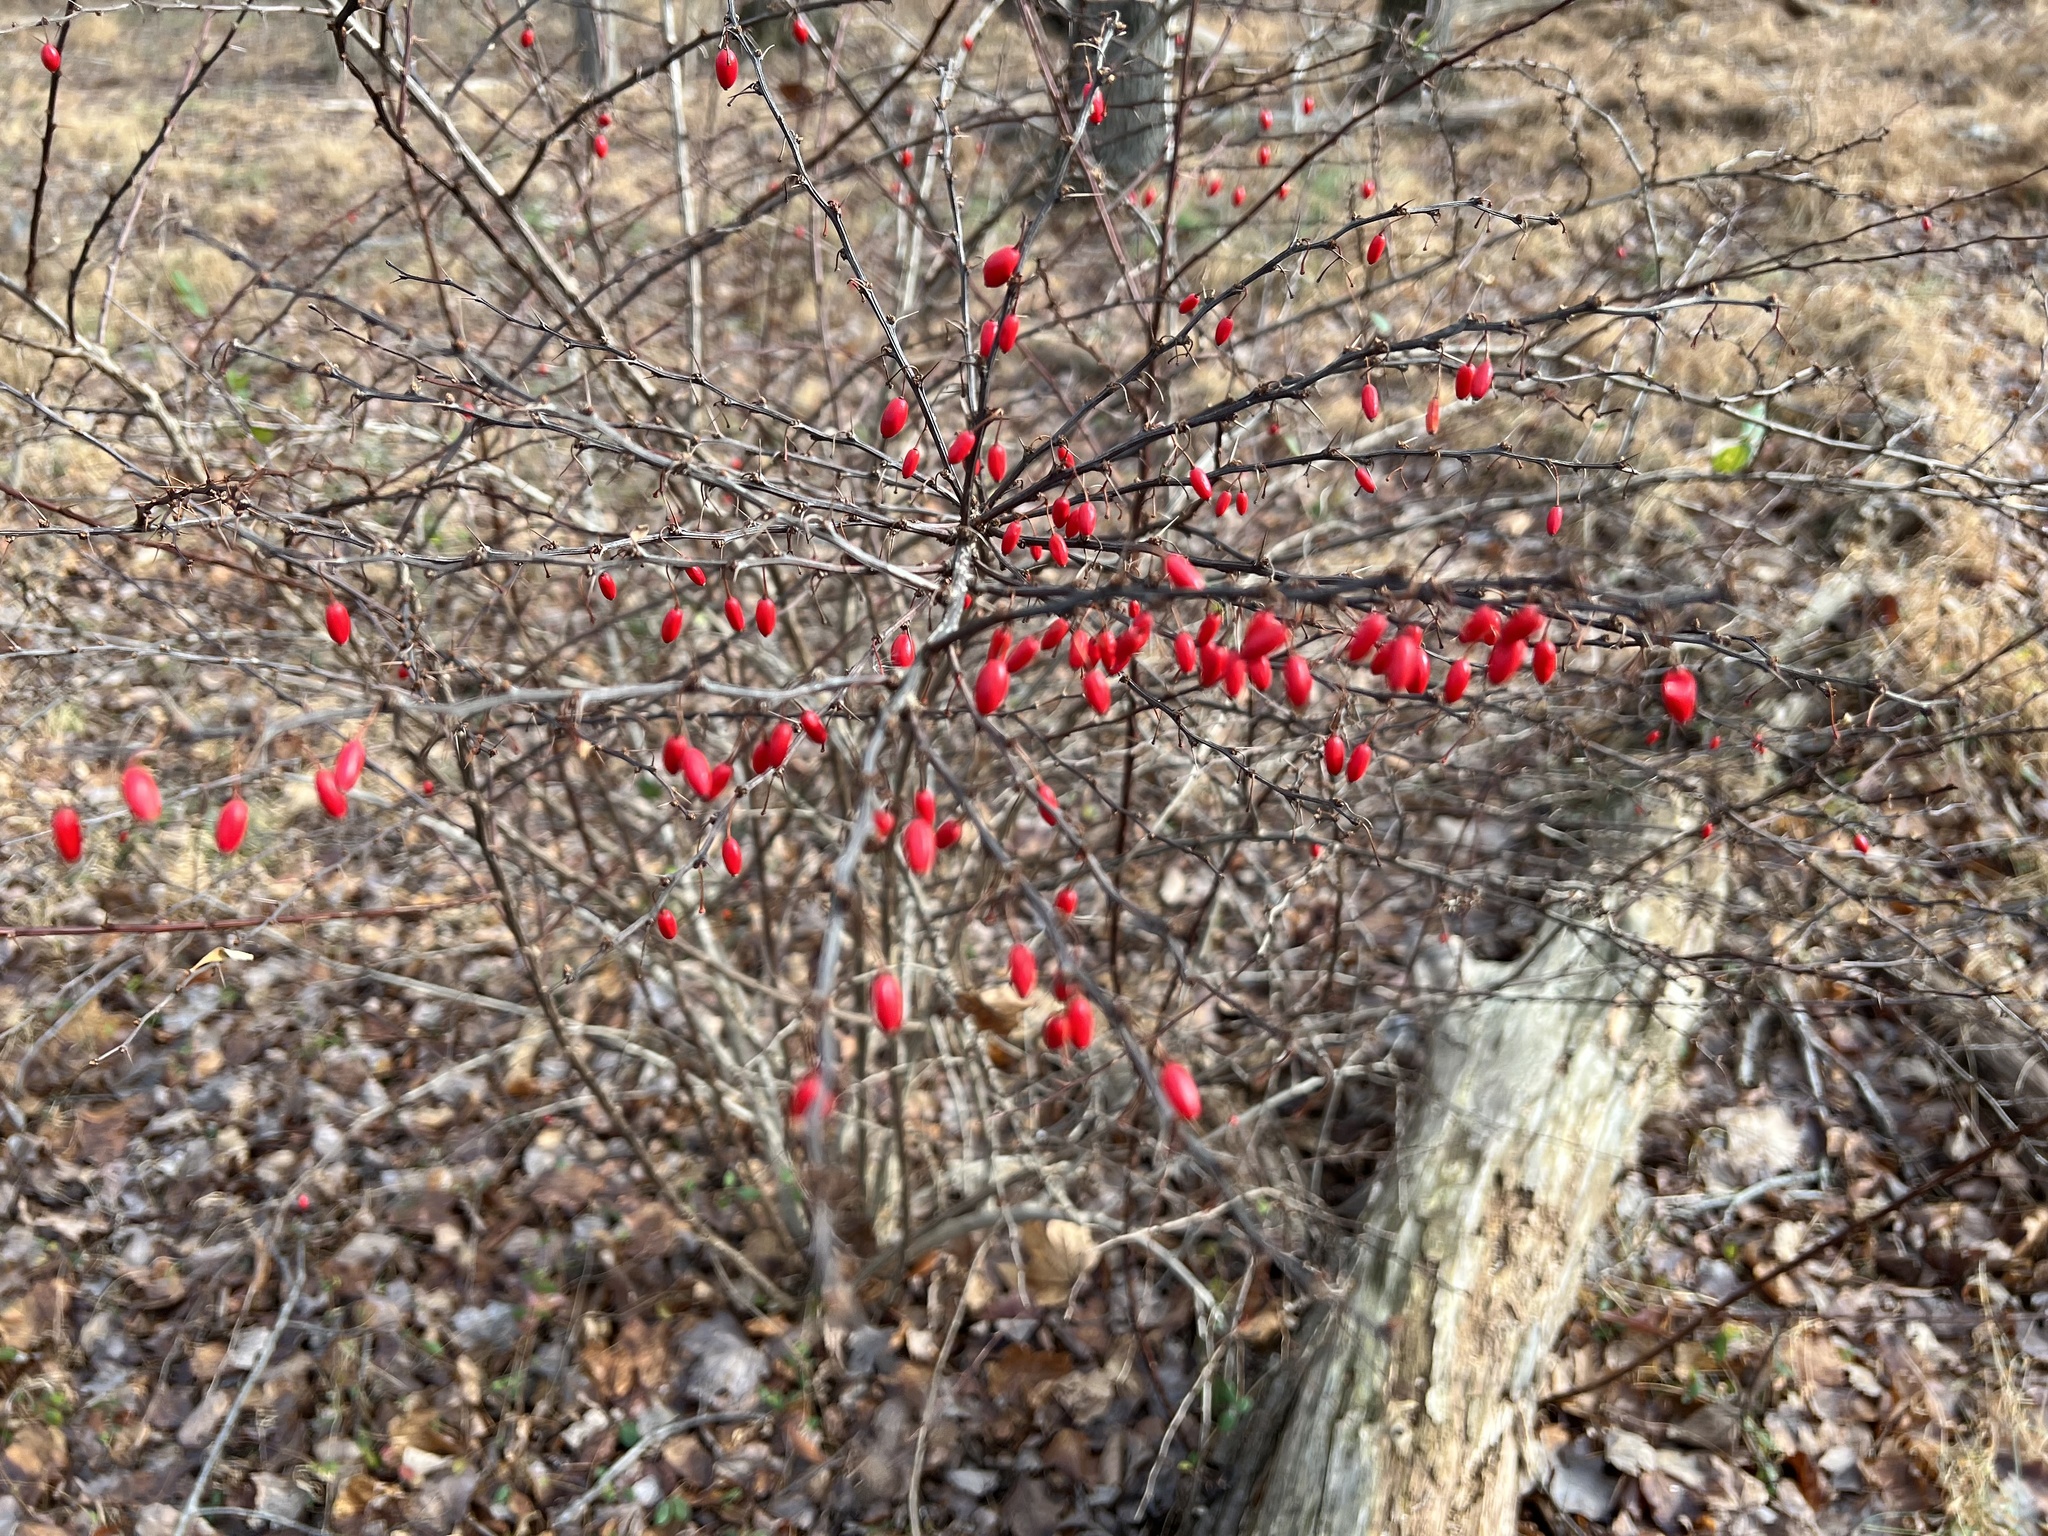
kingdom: Plantae
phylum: Tracheophyta
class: Magnoliopsida
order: Ranunculales
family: Berberidaceae
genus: Berberis
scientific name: Berberis thunbergii
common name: Japanese barberry
